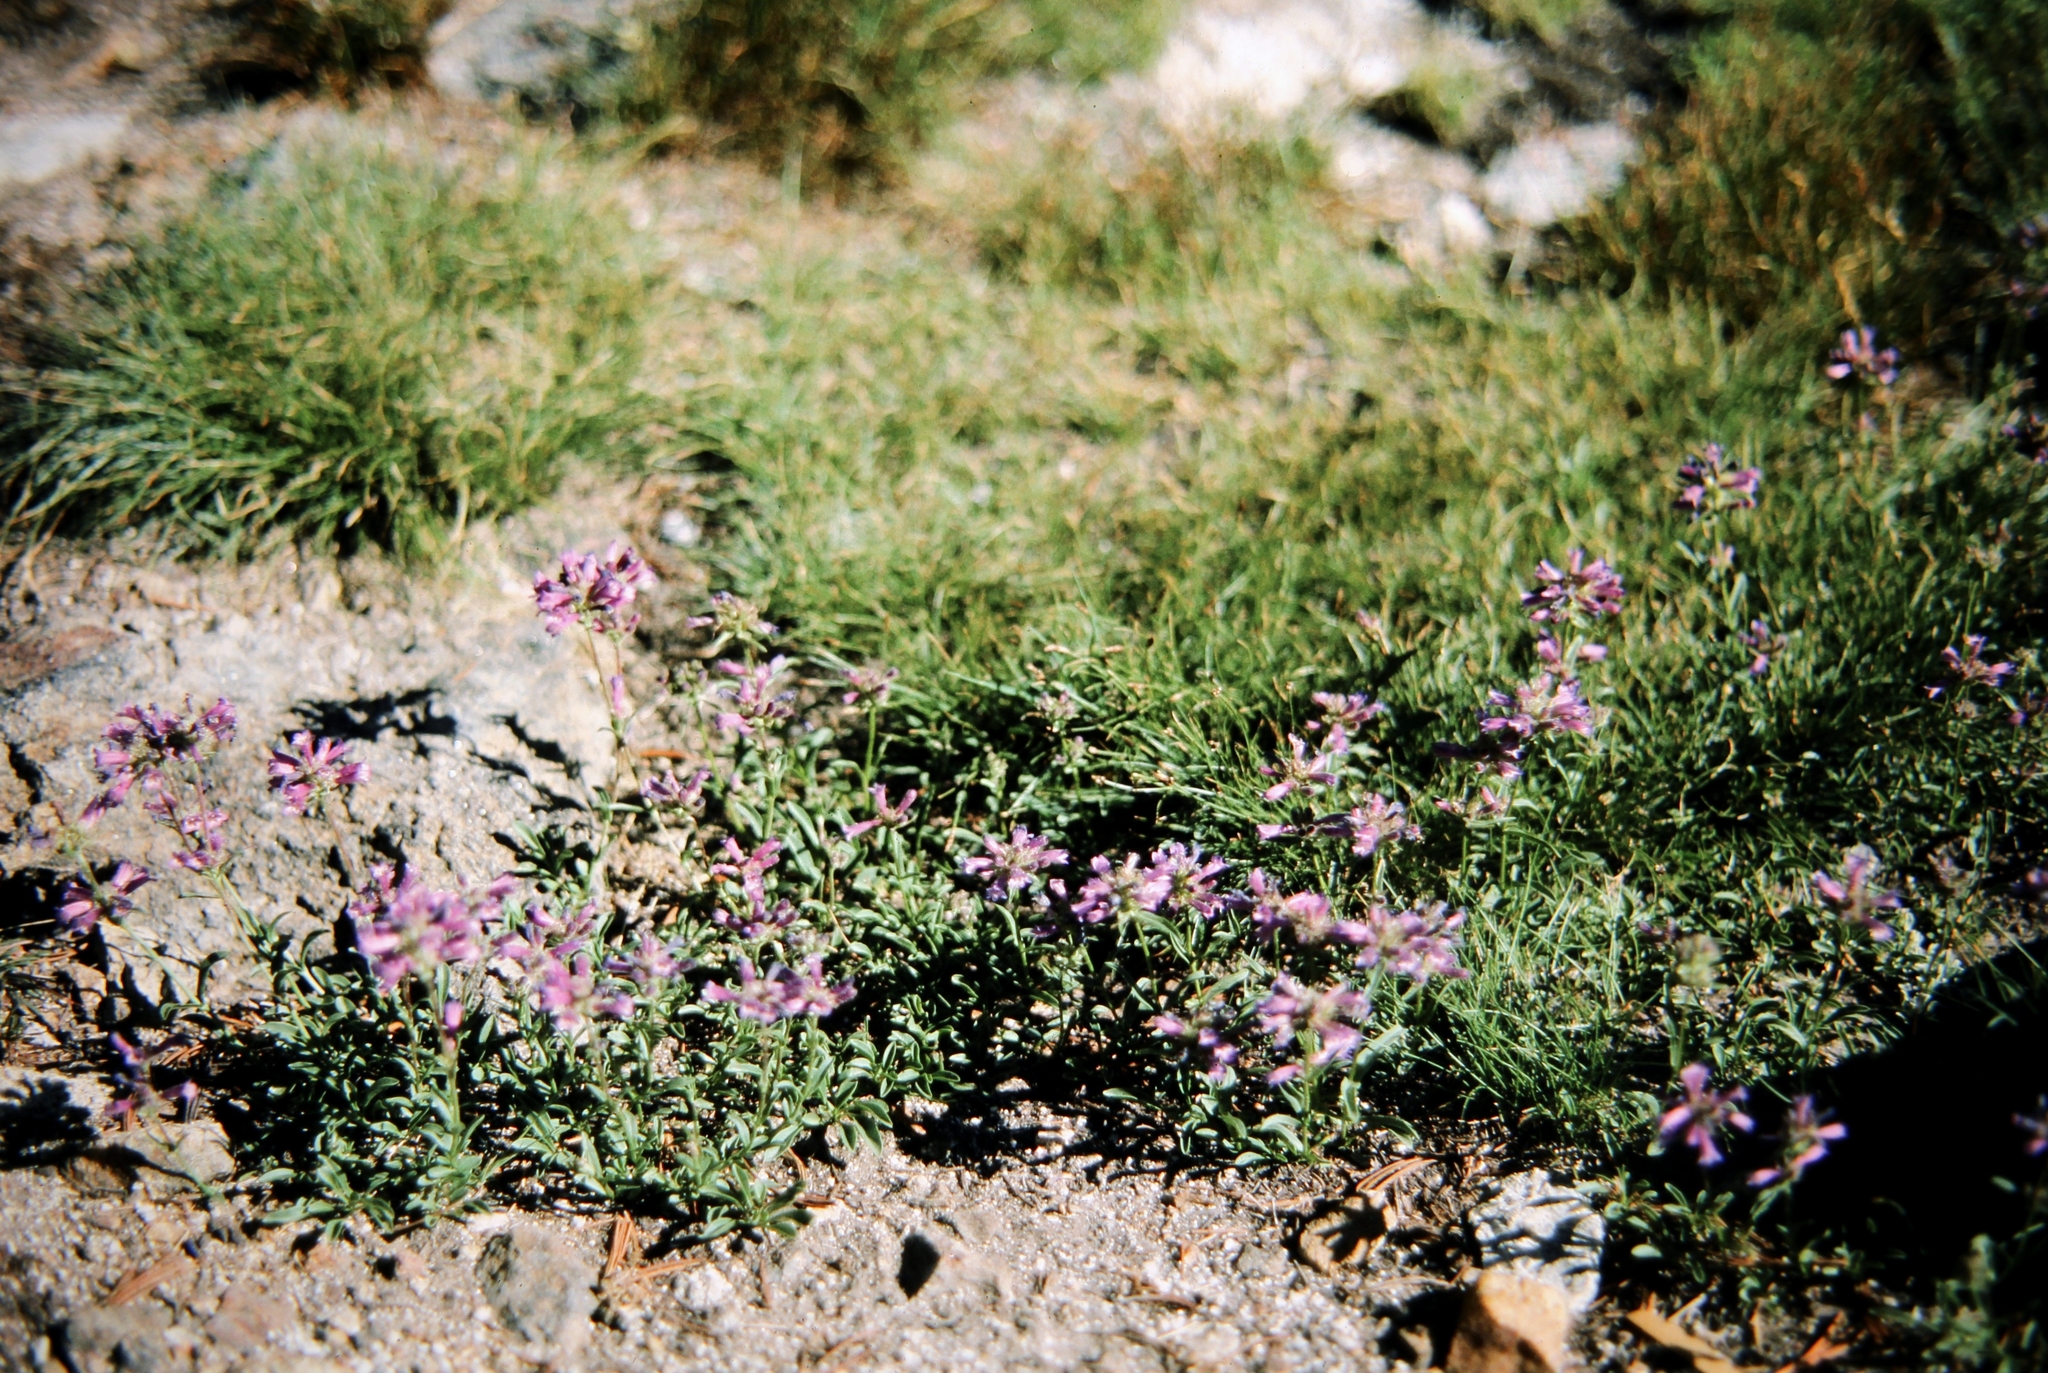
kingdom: Plantae
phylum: Tracheophyta
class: Magnoliopsida
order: Lamiales
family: Plantaginaceae
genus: Penstemon
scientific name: Penstemon heterodoxus
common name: Sierran penstemon
